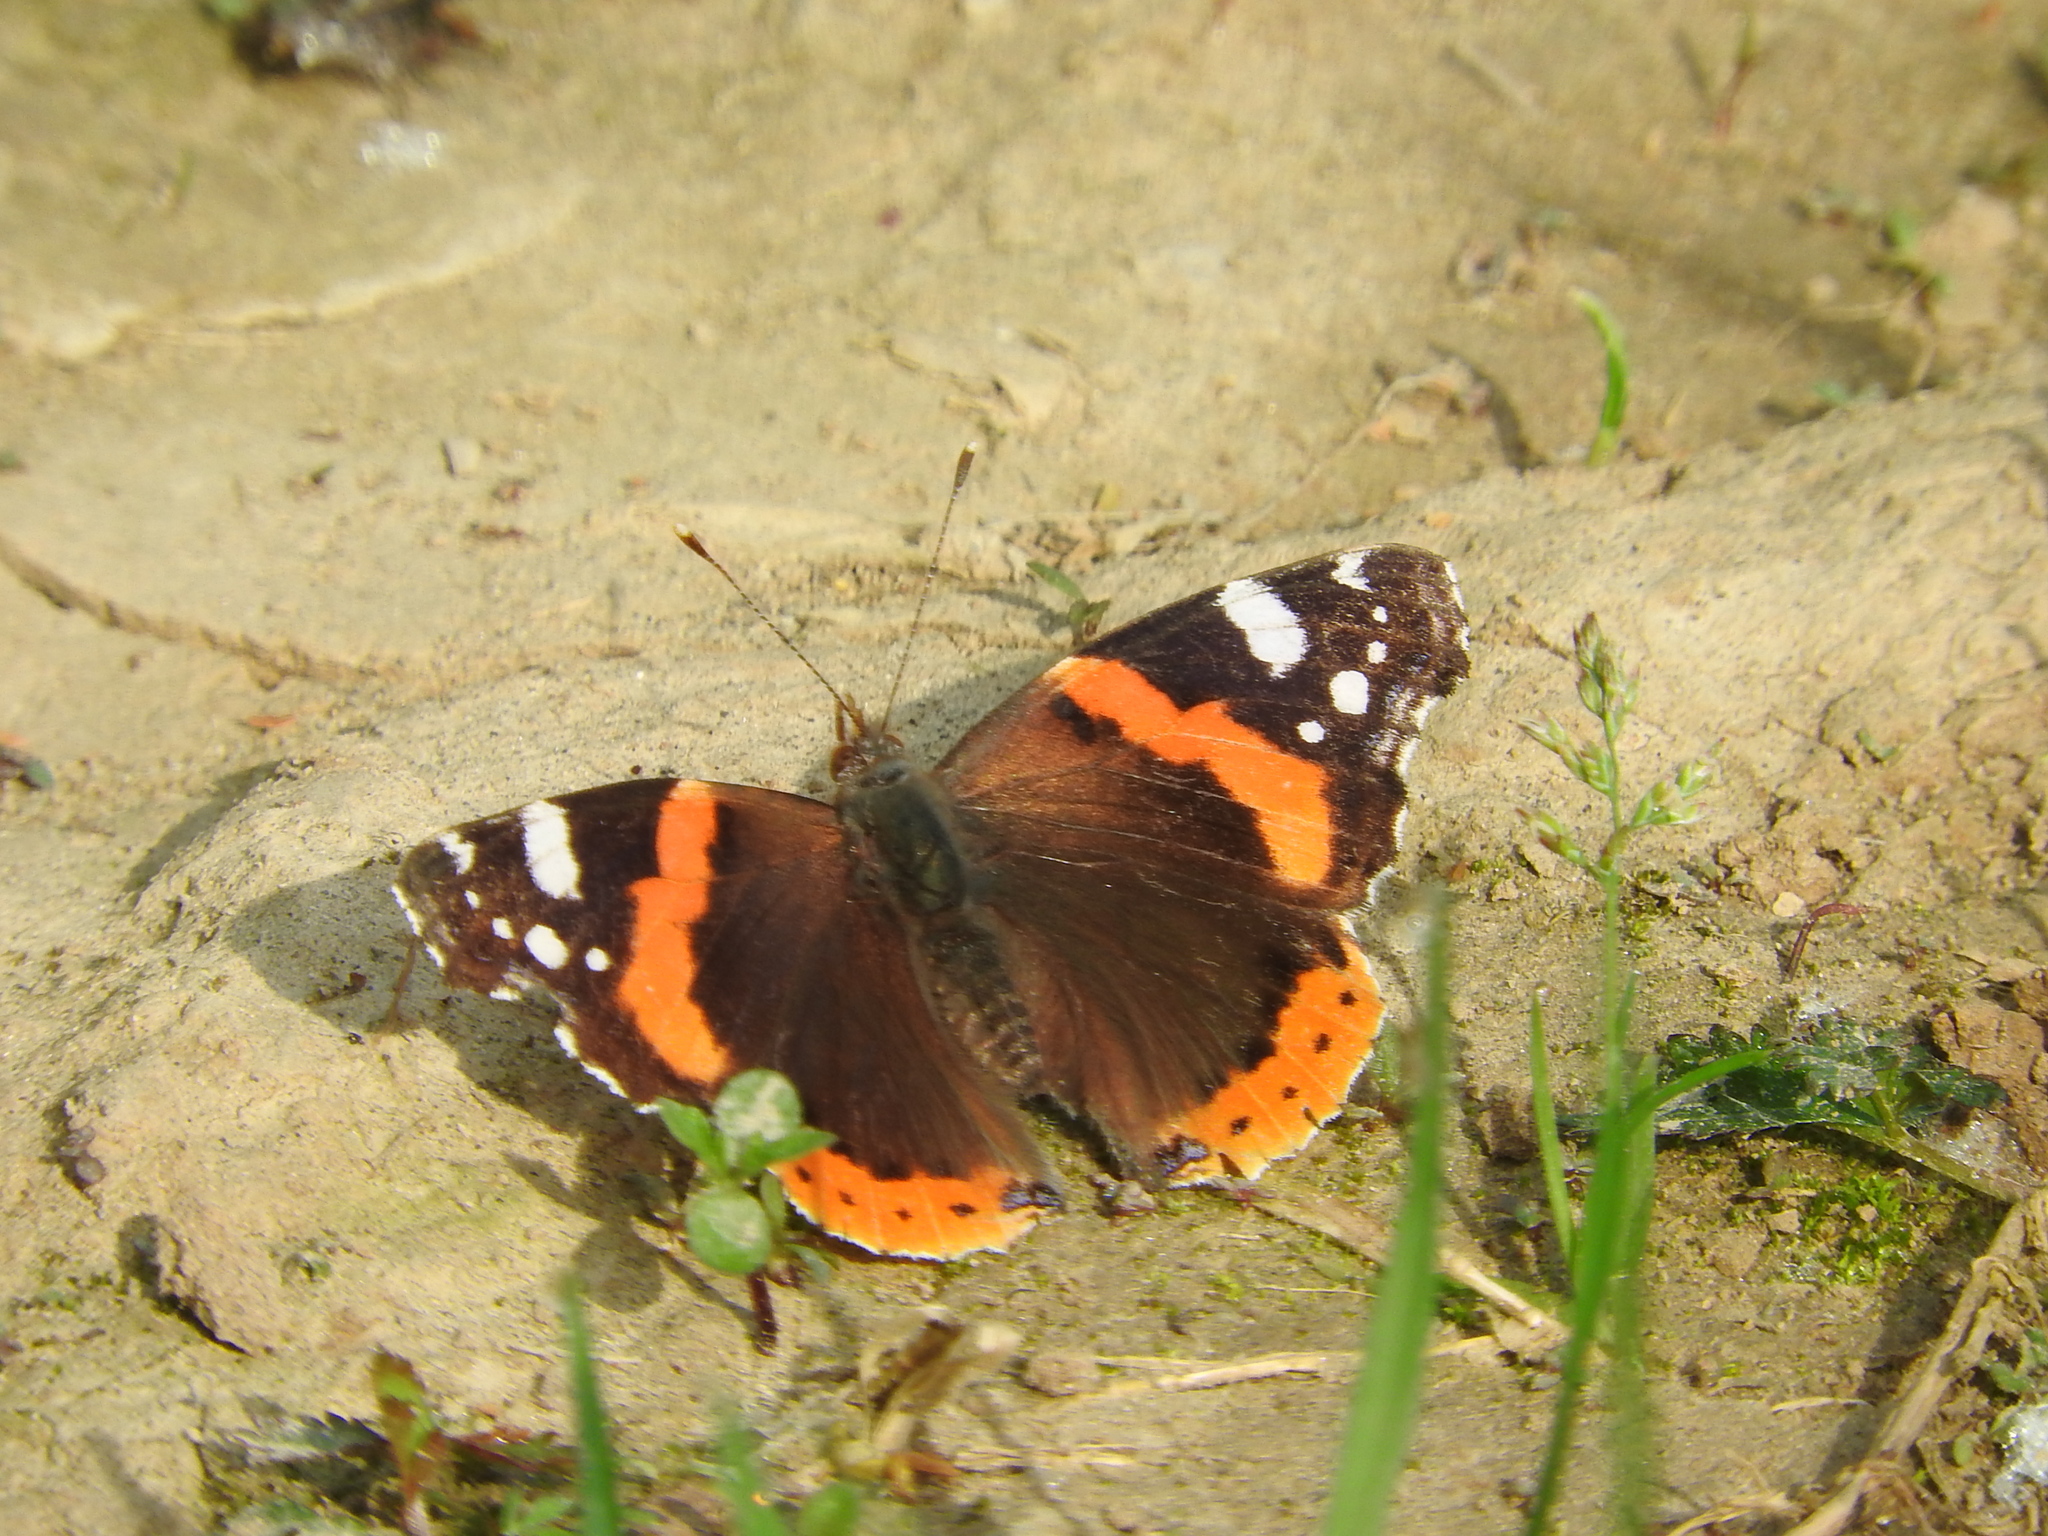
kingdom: Animalia
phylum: Arthropoda
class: Insecta
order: Lepidoptera
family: Nymphalidae
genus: Vanessa
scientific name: Vanessa atalanta
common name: Red admiral
